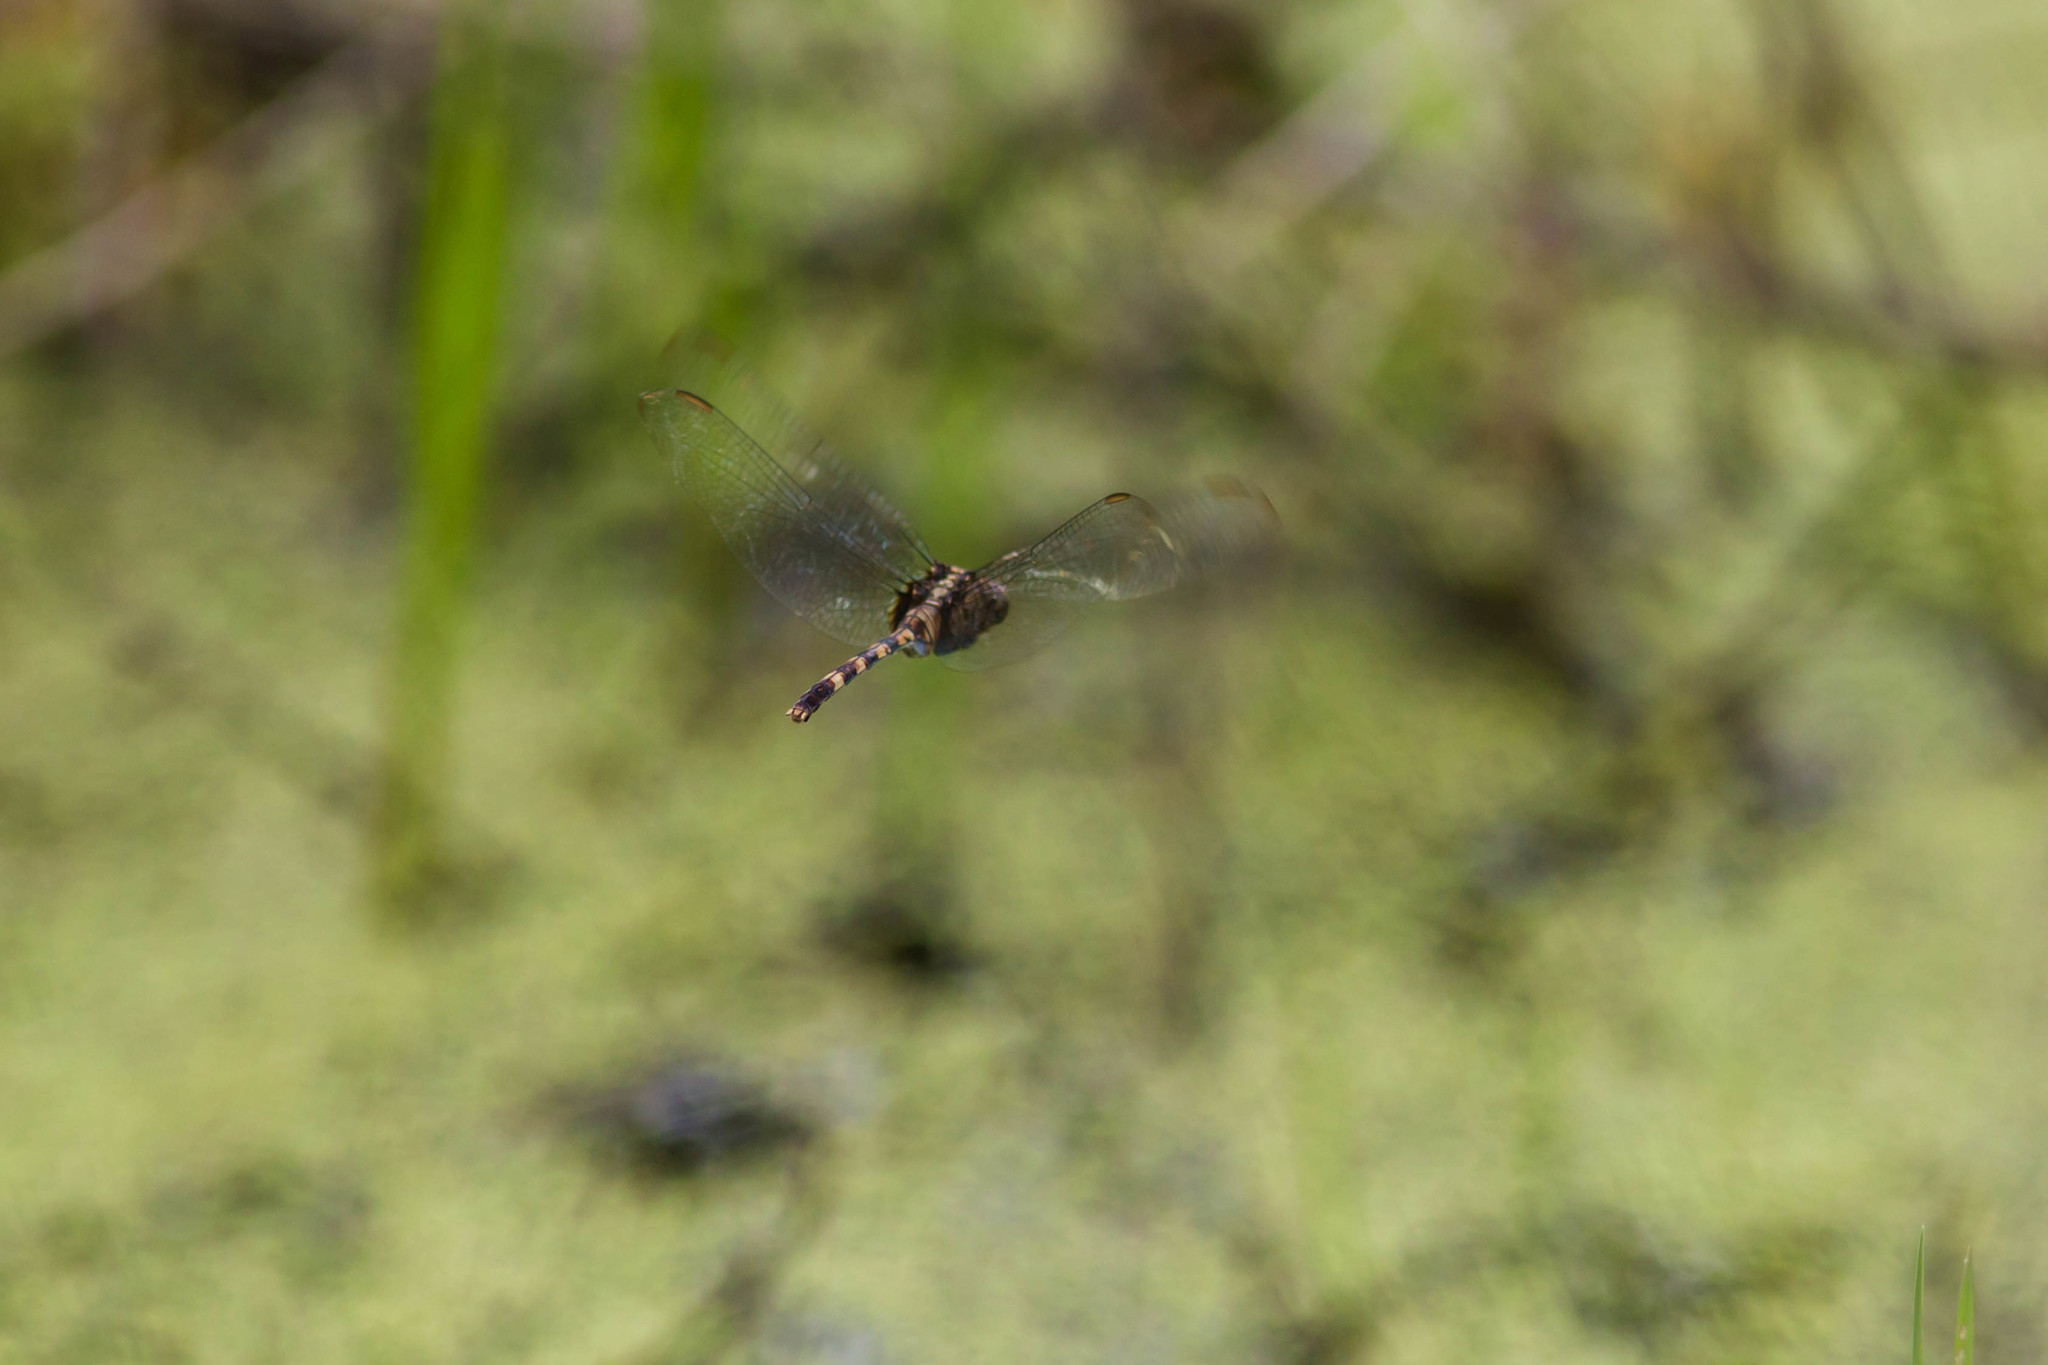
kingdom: Animalia
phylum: Arthropoda
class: Insecta
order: Odonata
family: Libellulidae
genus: Erythemis
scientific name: Erythemis plebeja
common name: Pin-tailed pondhawk
